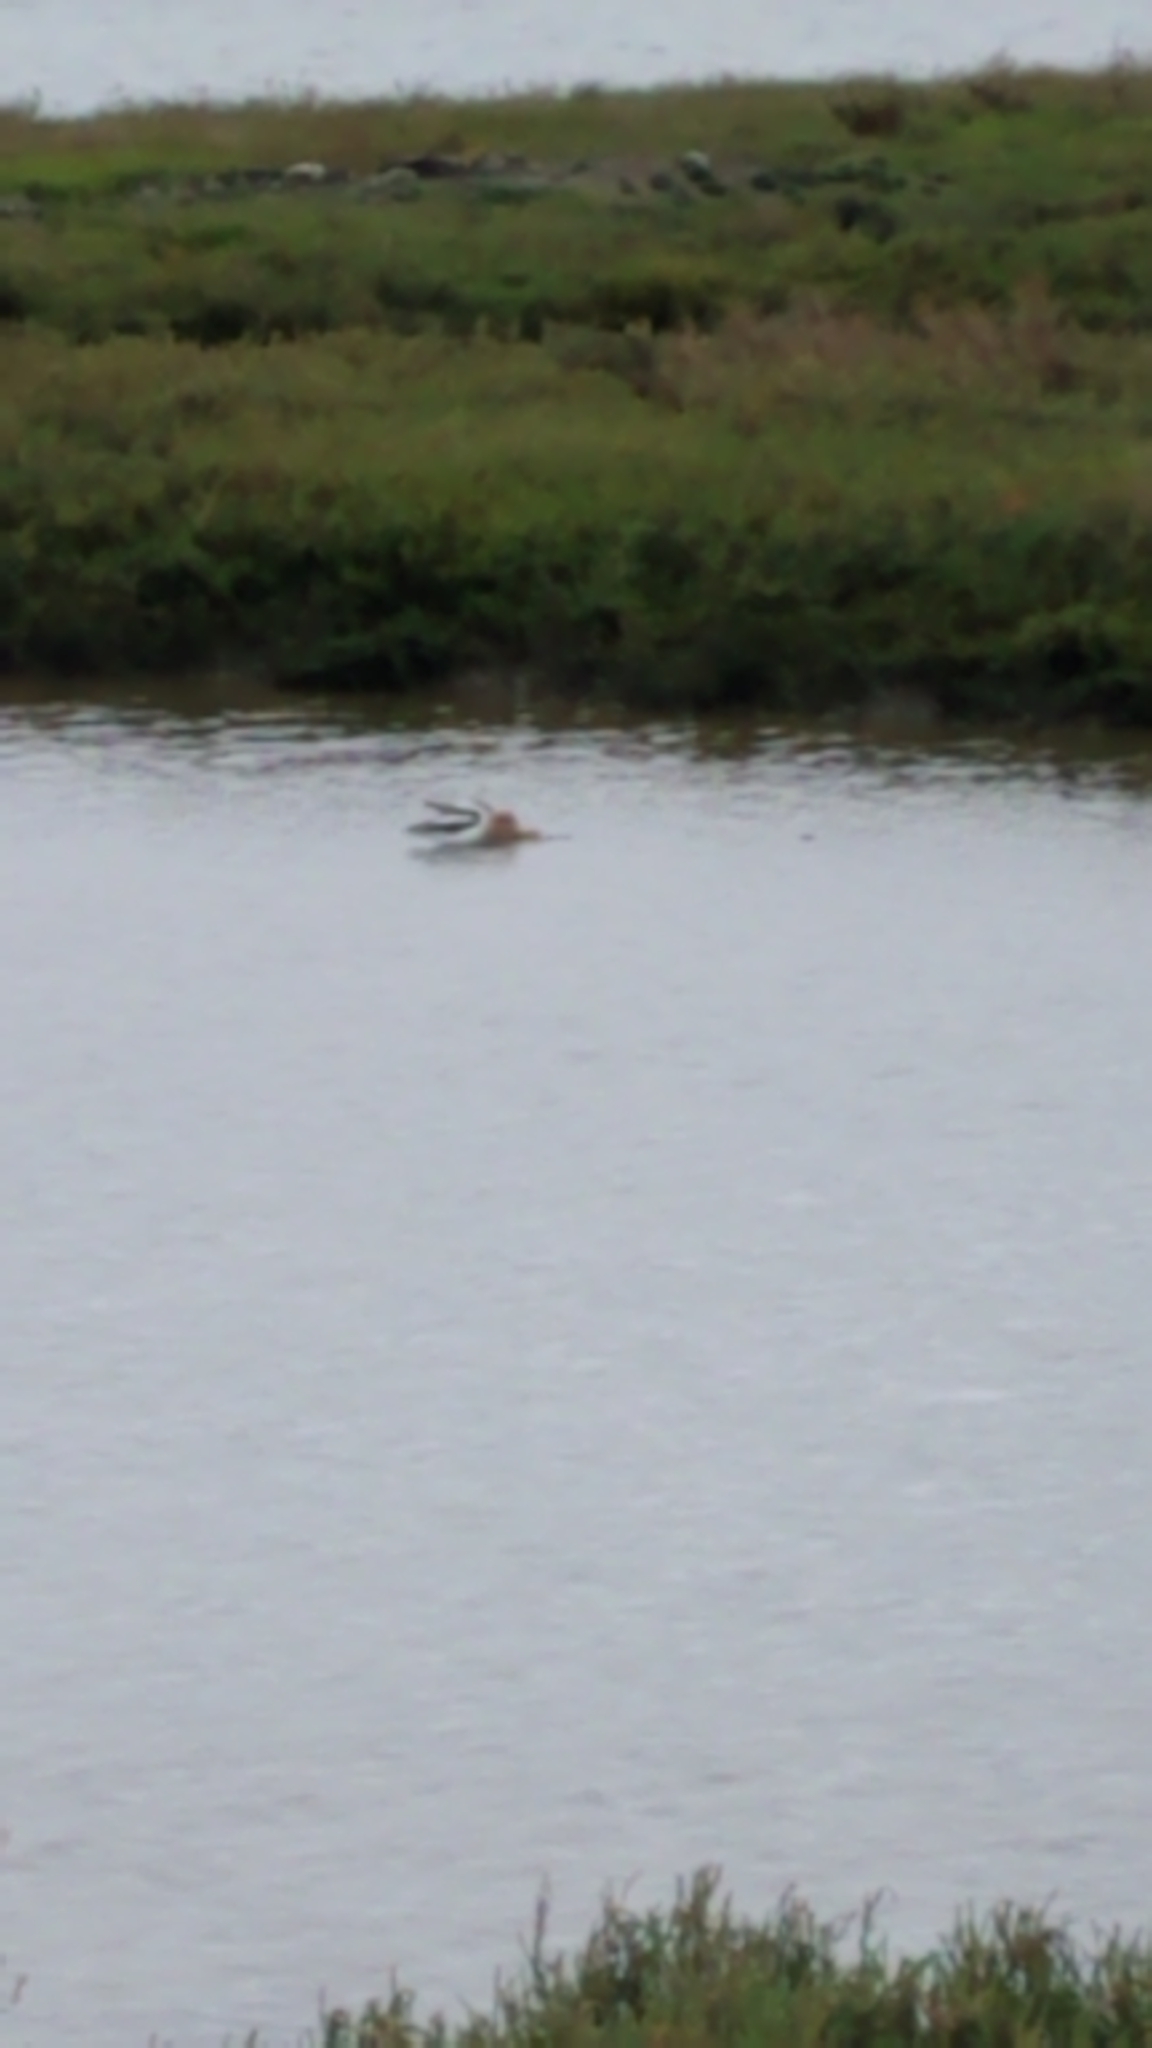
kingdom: Animalia
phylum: Chordata
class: Aves
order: Charadriiformes
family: Recurvirostridae
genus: Recurvirostra
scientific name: Recurvirostra americana
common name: American avocet
